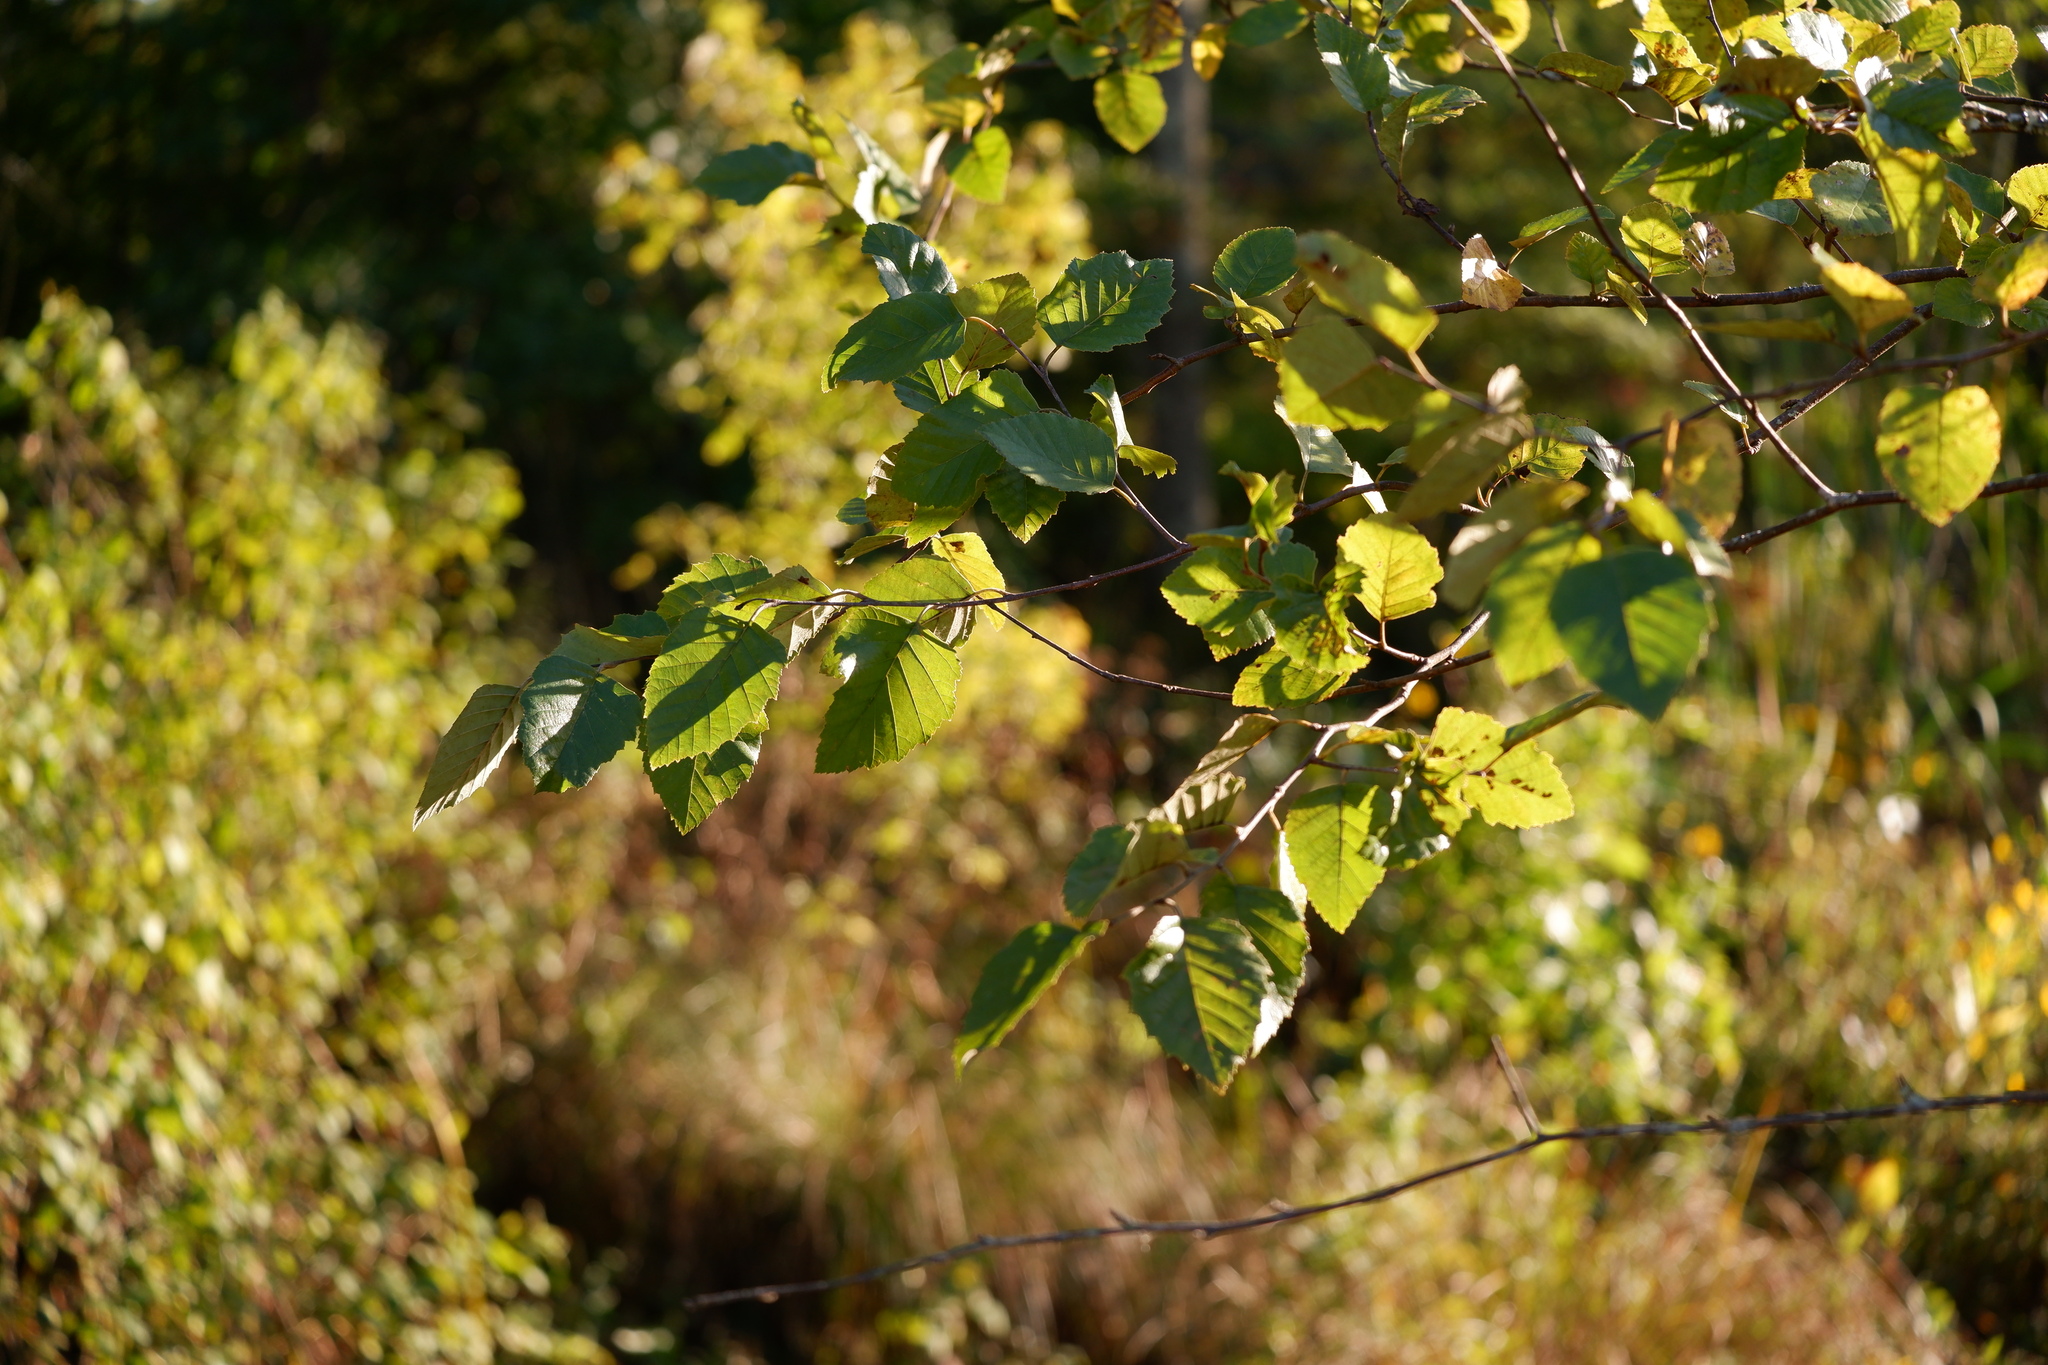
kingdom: Plantae
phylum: Tracheophyta
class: Magnoliopsida
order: Fagales
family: Betulaceae
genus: Betula
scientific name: Betula nigra
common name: Black birch
